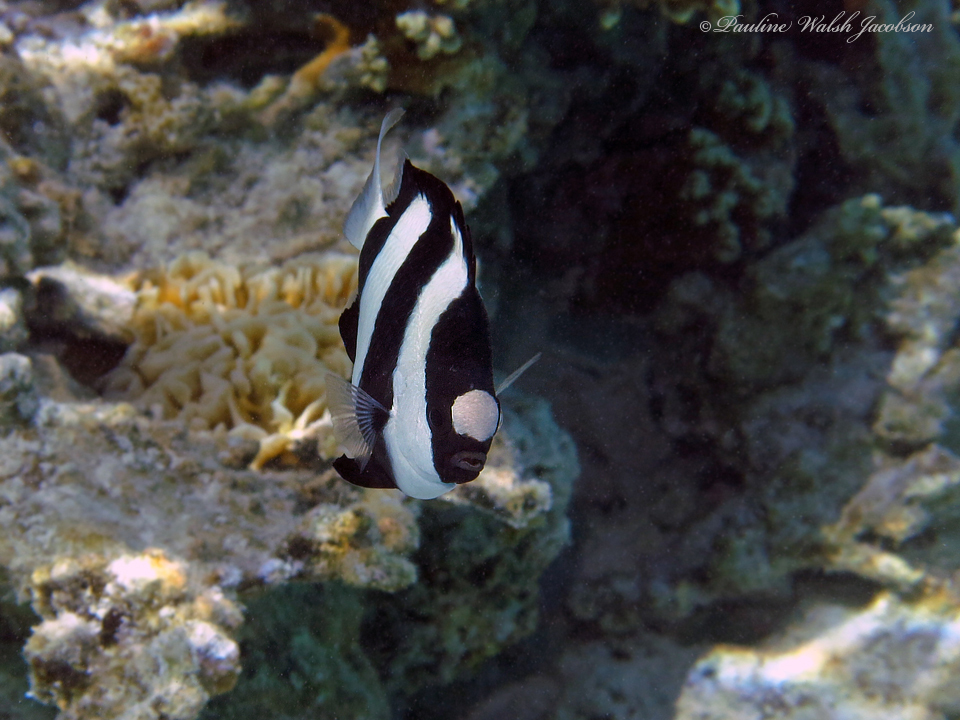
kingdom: Animalia
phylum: Chordata
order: Perciformes
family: Pomacentridae
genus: Dascyllus
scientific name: Dascyllus aruanus
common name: Humbug dascyllus
